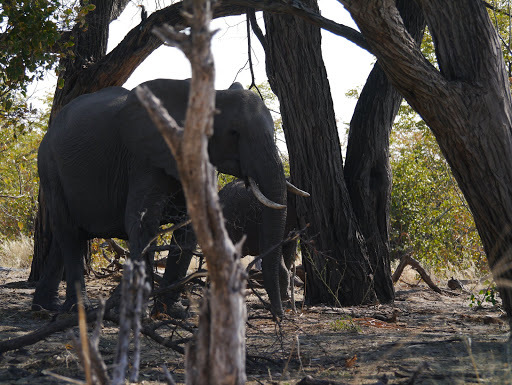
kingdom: Animalia
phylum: Chordata
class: Mammalia
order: Proboscidea
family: Elephantidae
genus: Loxodonta
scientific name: Loxodonta africana
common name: African elephant
